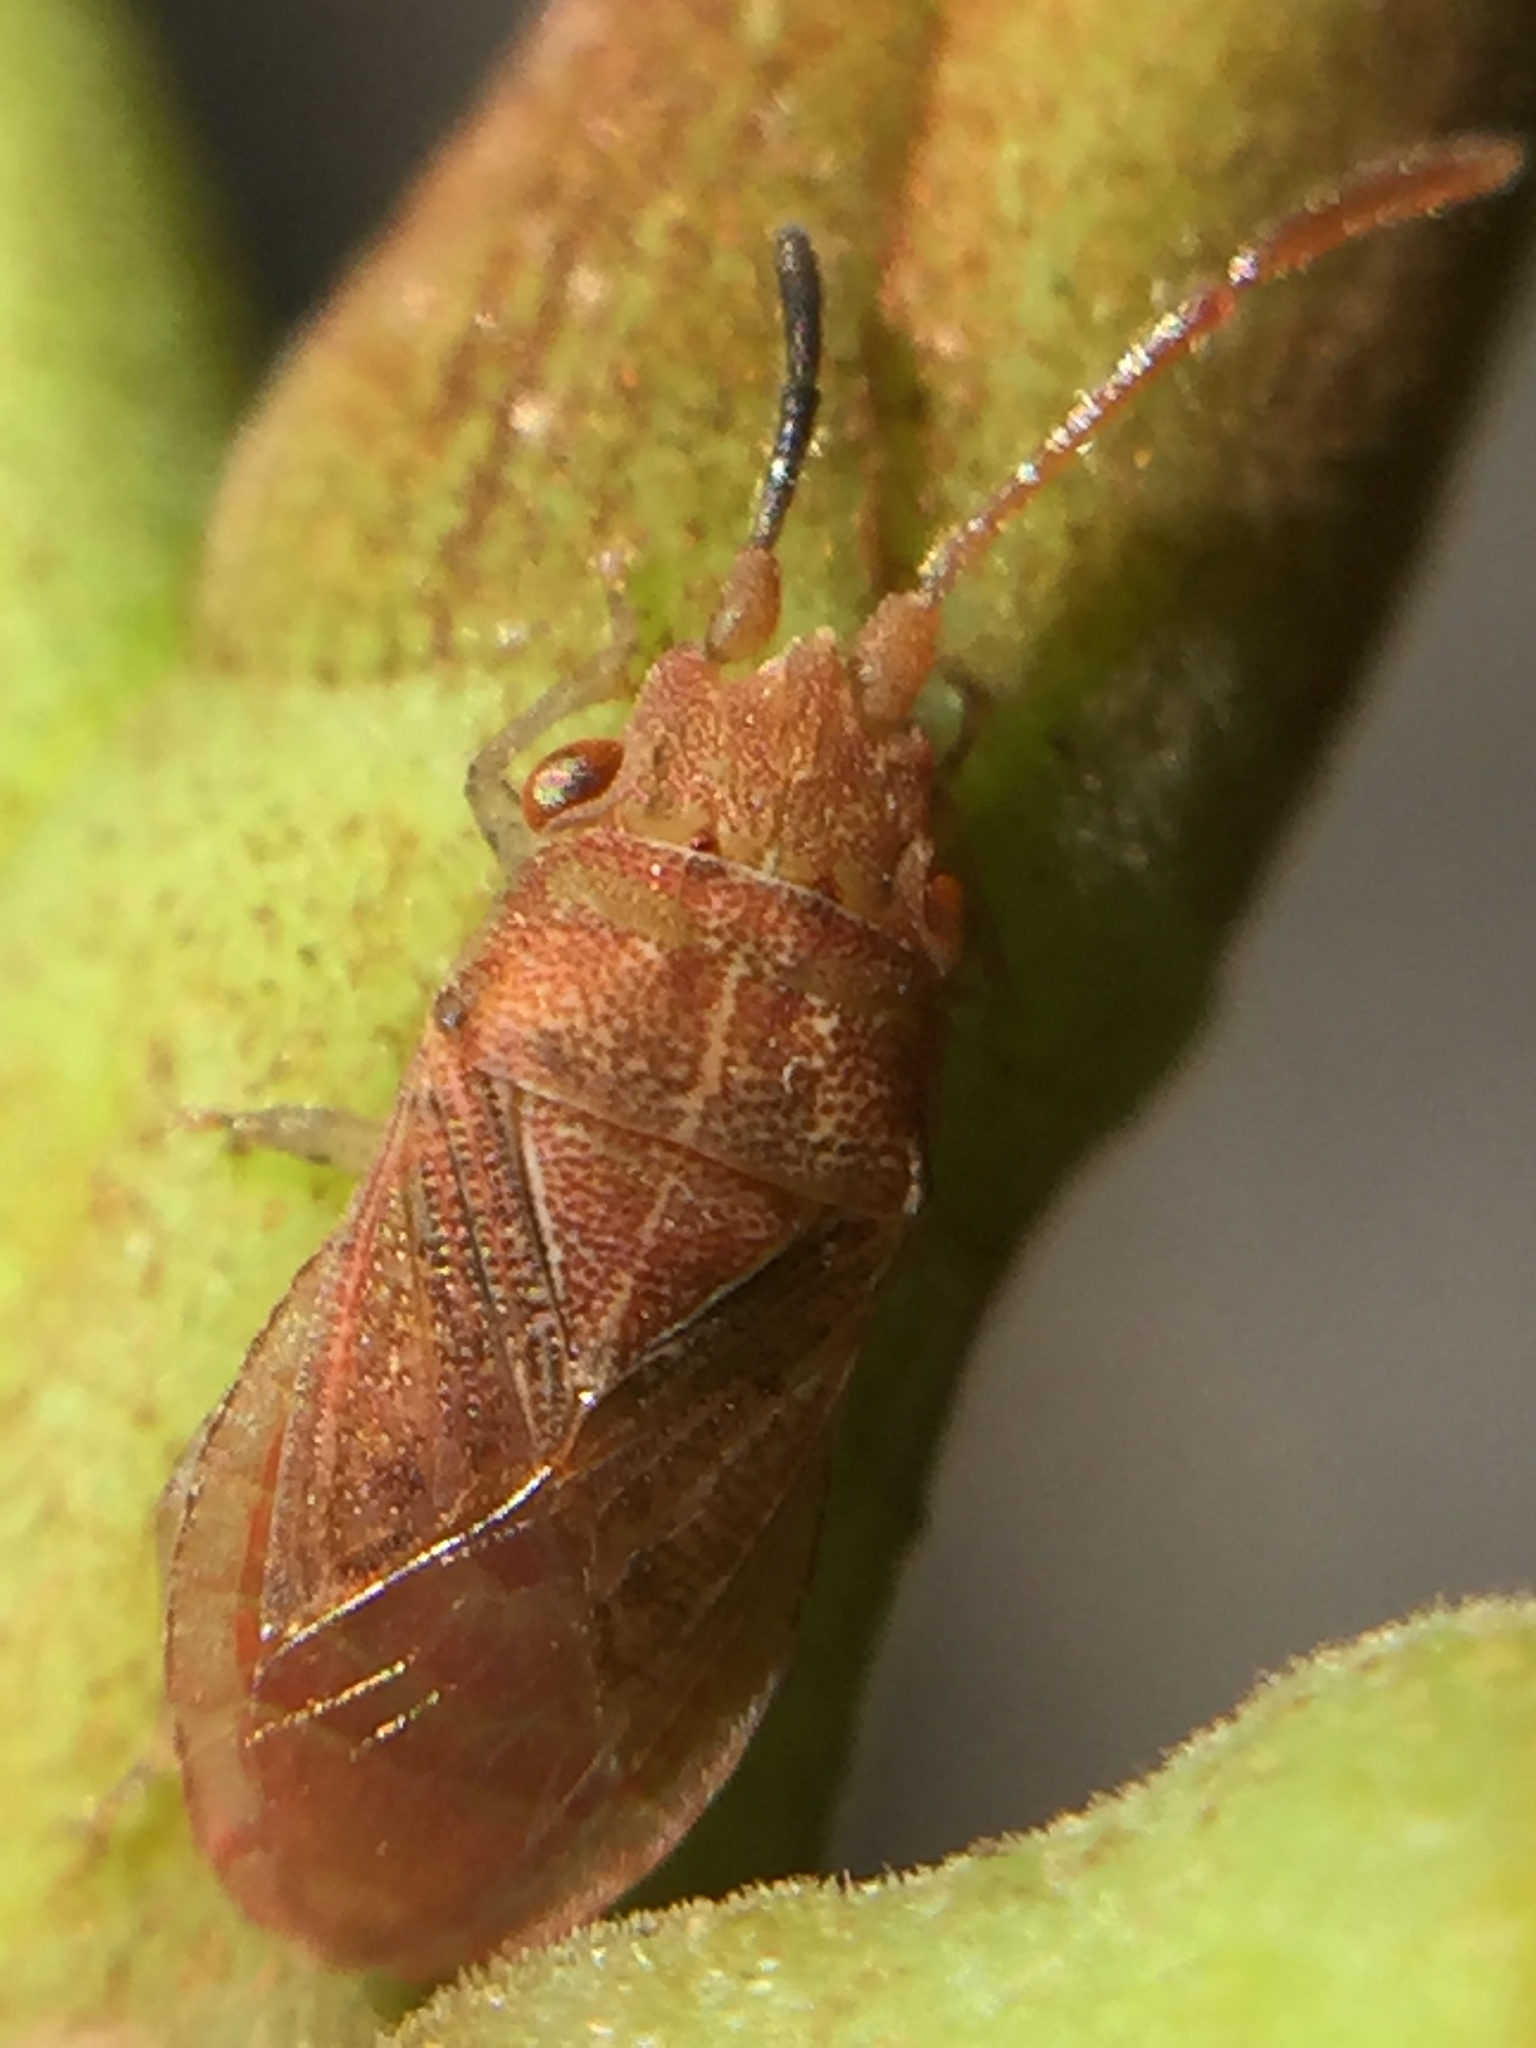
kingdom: Animalia
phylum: Arthropoda
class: Insecta
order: Hemiptera
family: Meschiidae
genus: Meschia
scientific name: Meschia barrowensis
